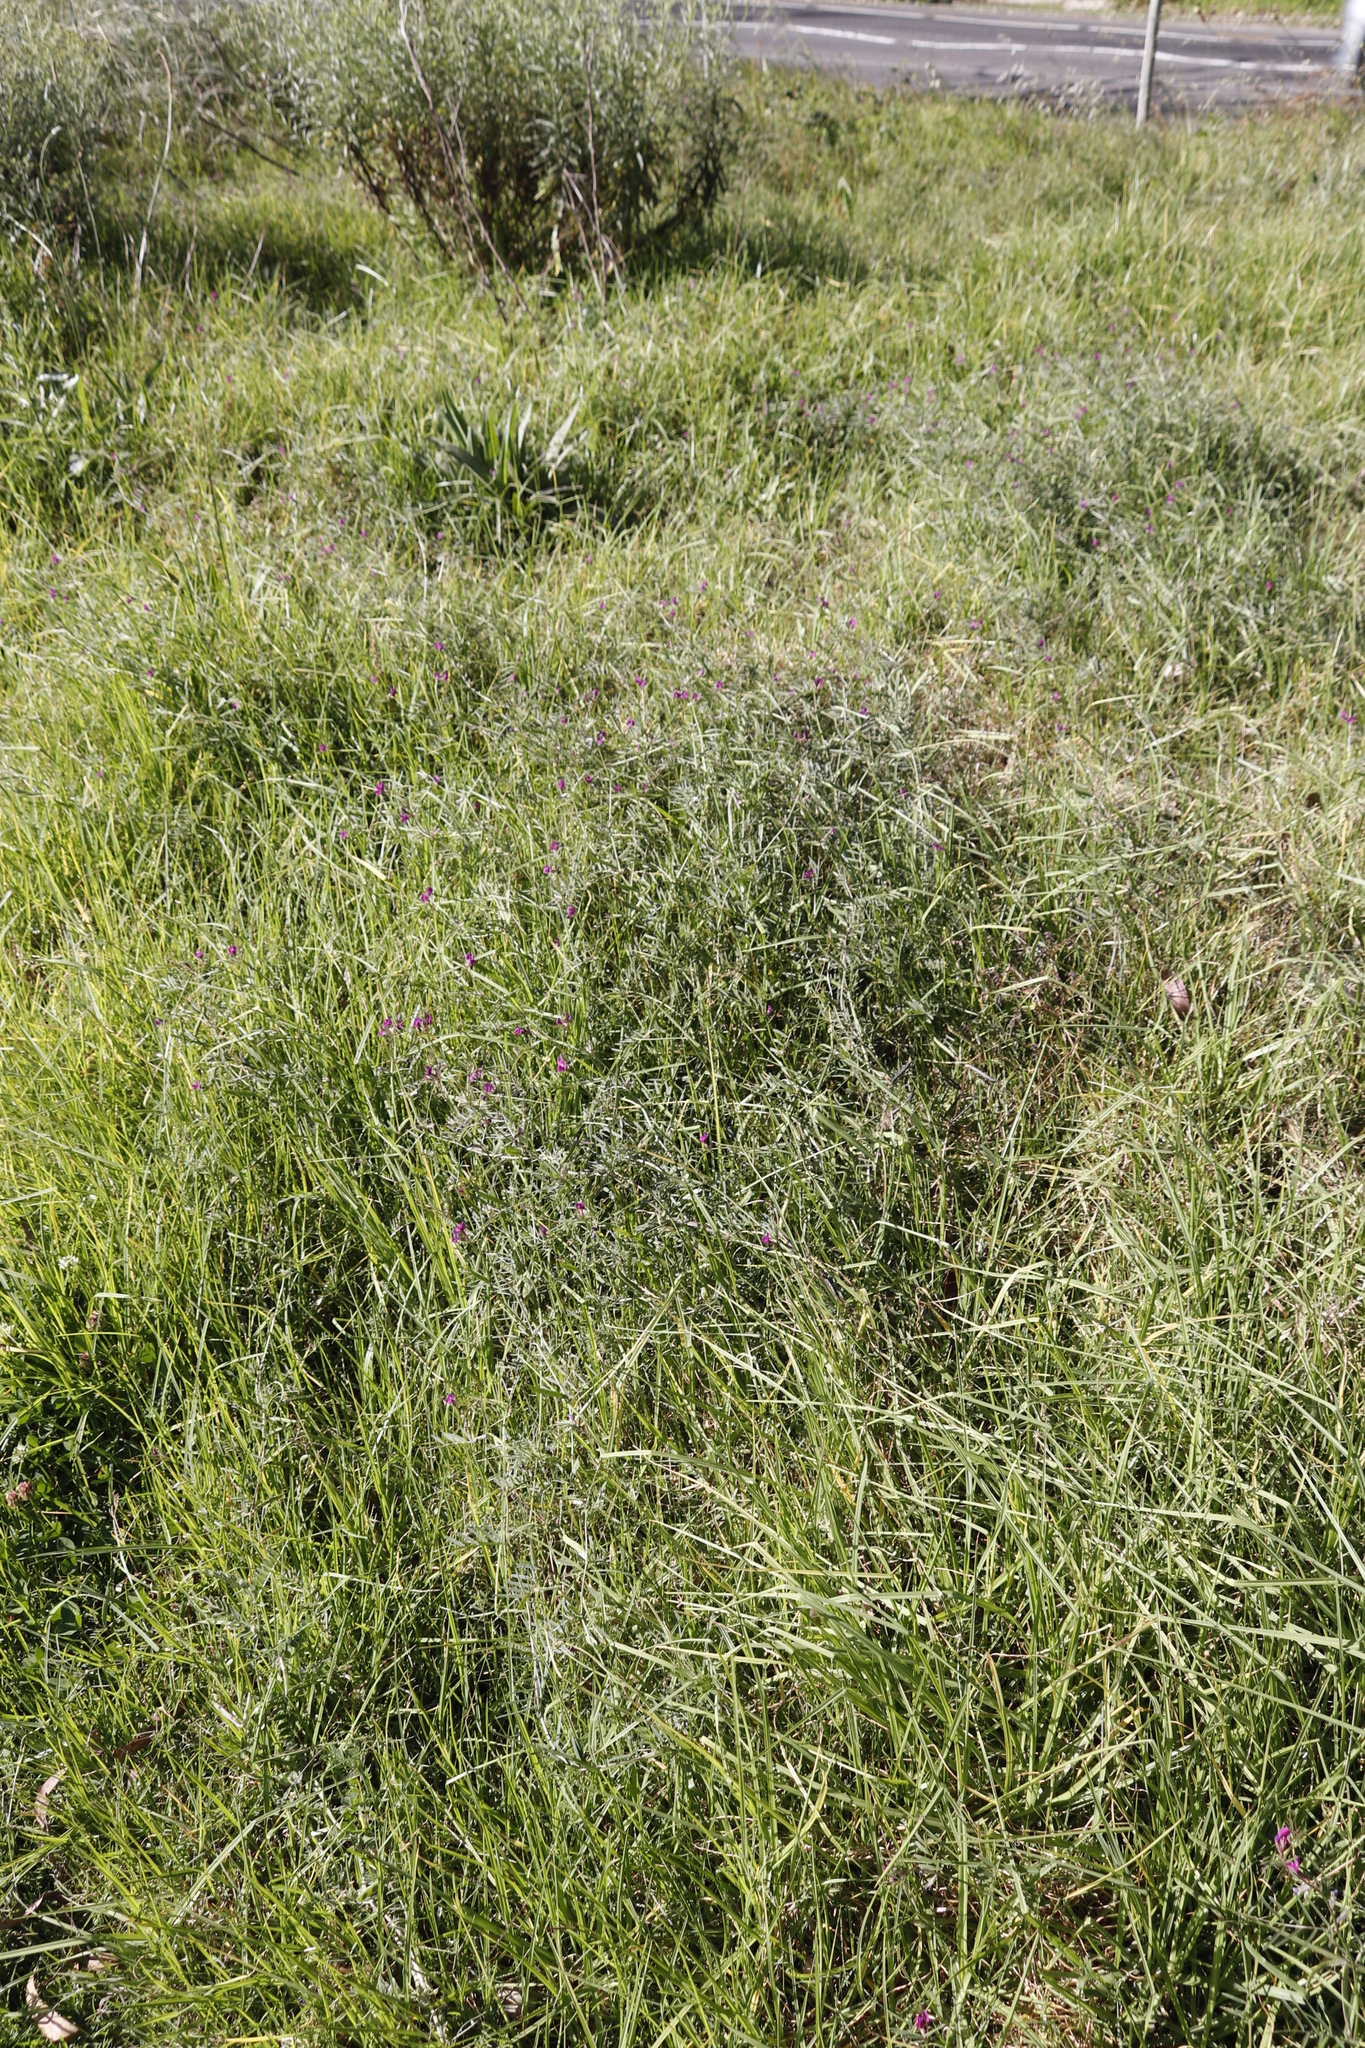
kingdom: Plantae
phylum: Tracheophyta
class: Magnoliopsida
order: Fabales
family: Fabaceae
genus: Vicia
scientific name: Vicia sativa
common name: Garden vetch
